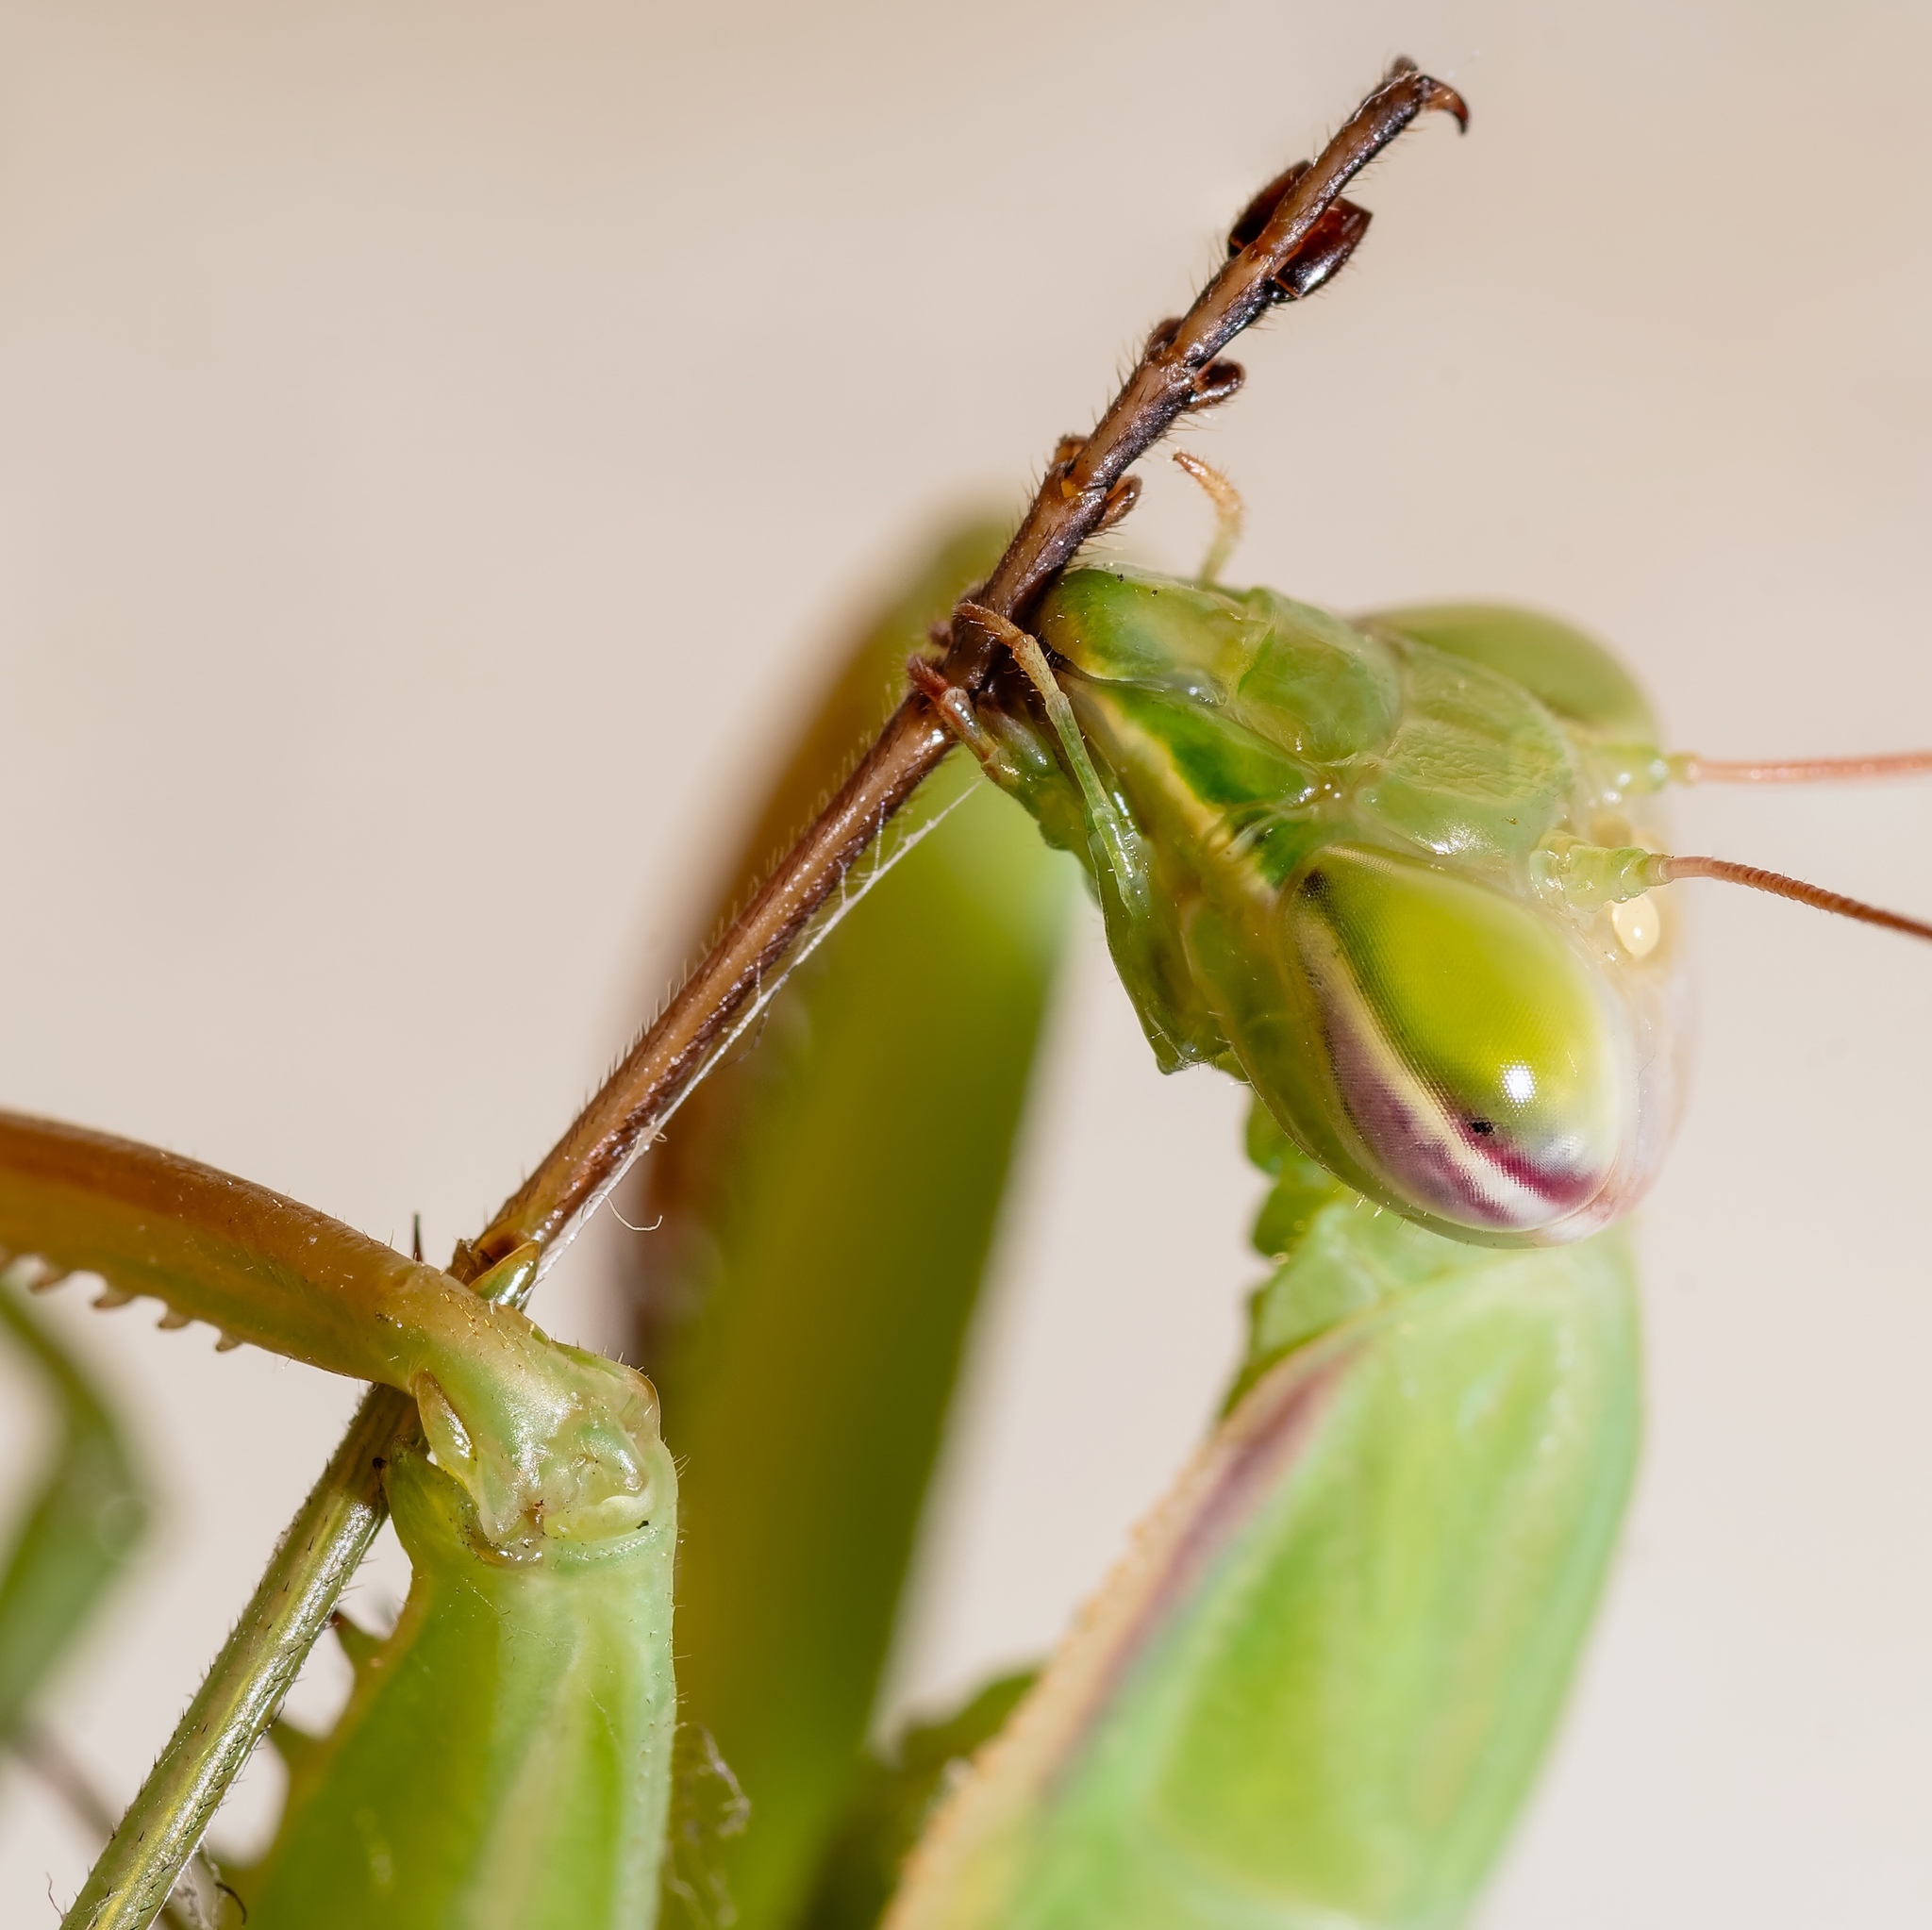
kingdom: Animalia
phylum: Arthropoda
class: Insecta
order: Mantodea
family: Mantidae
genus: Mantis
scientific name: Mantis religiosa
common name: Praying mantis
